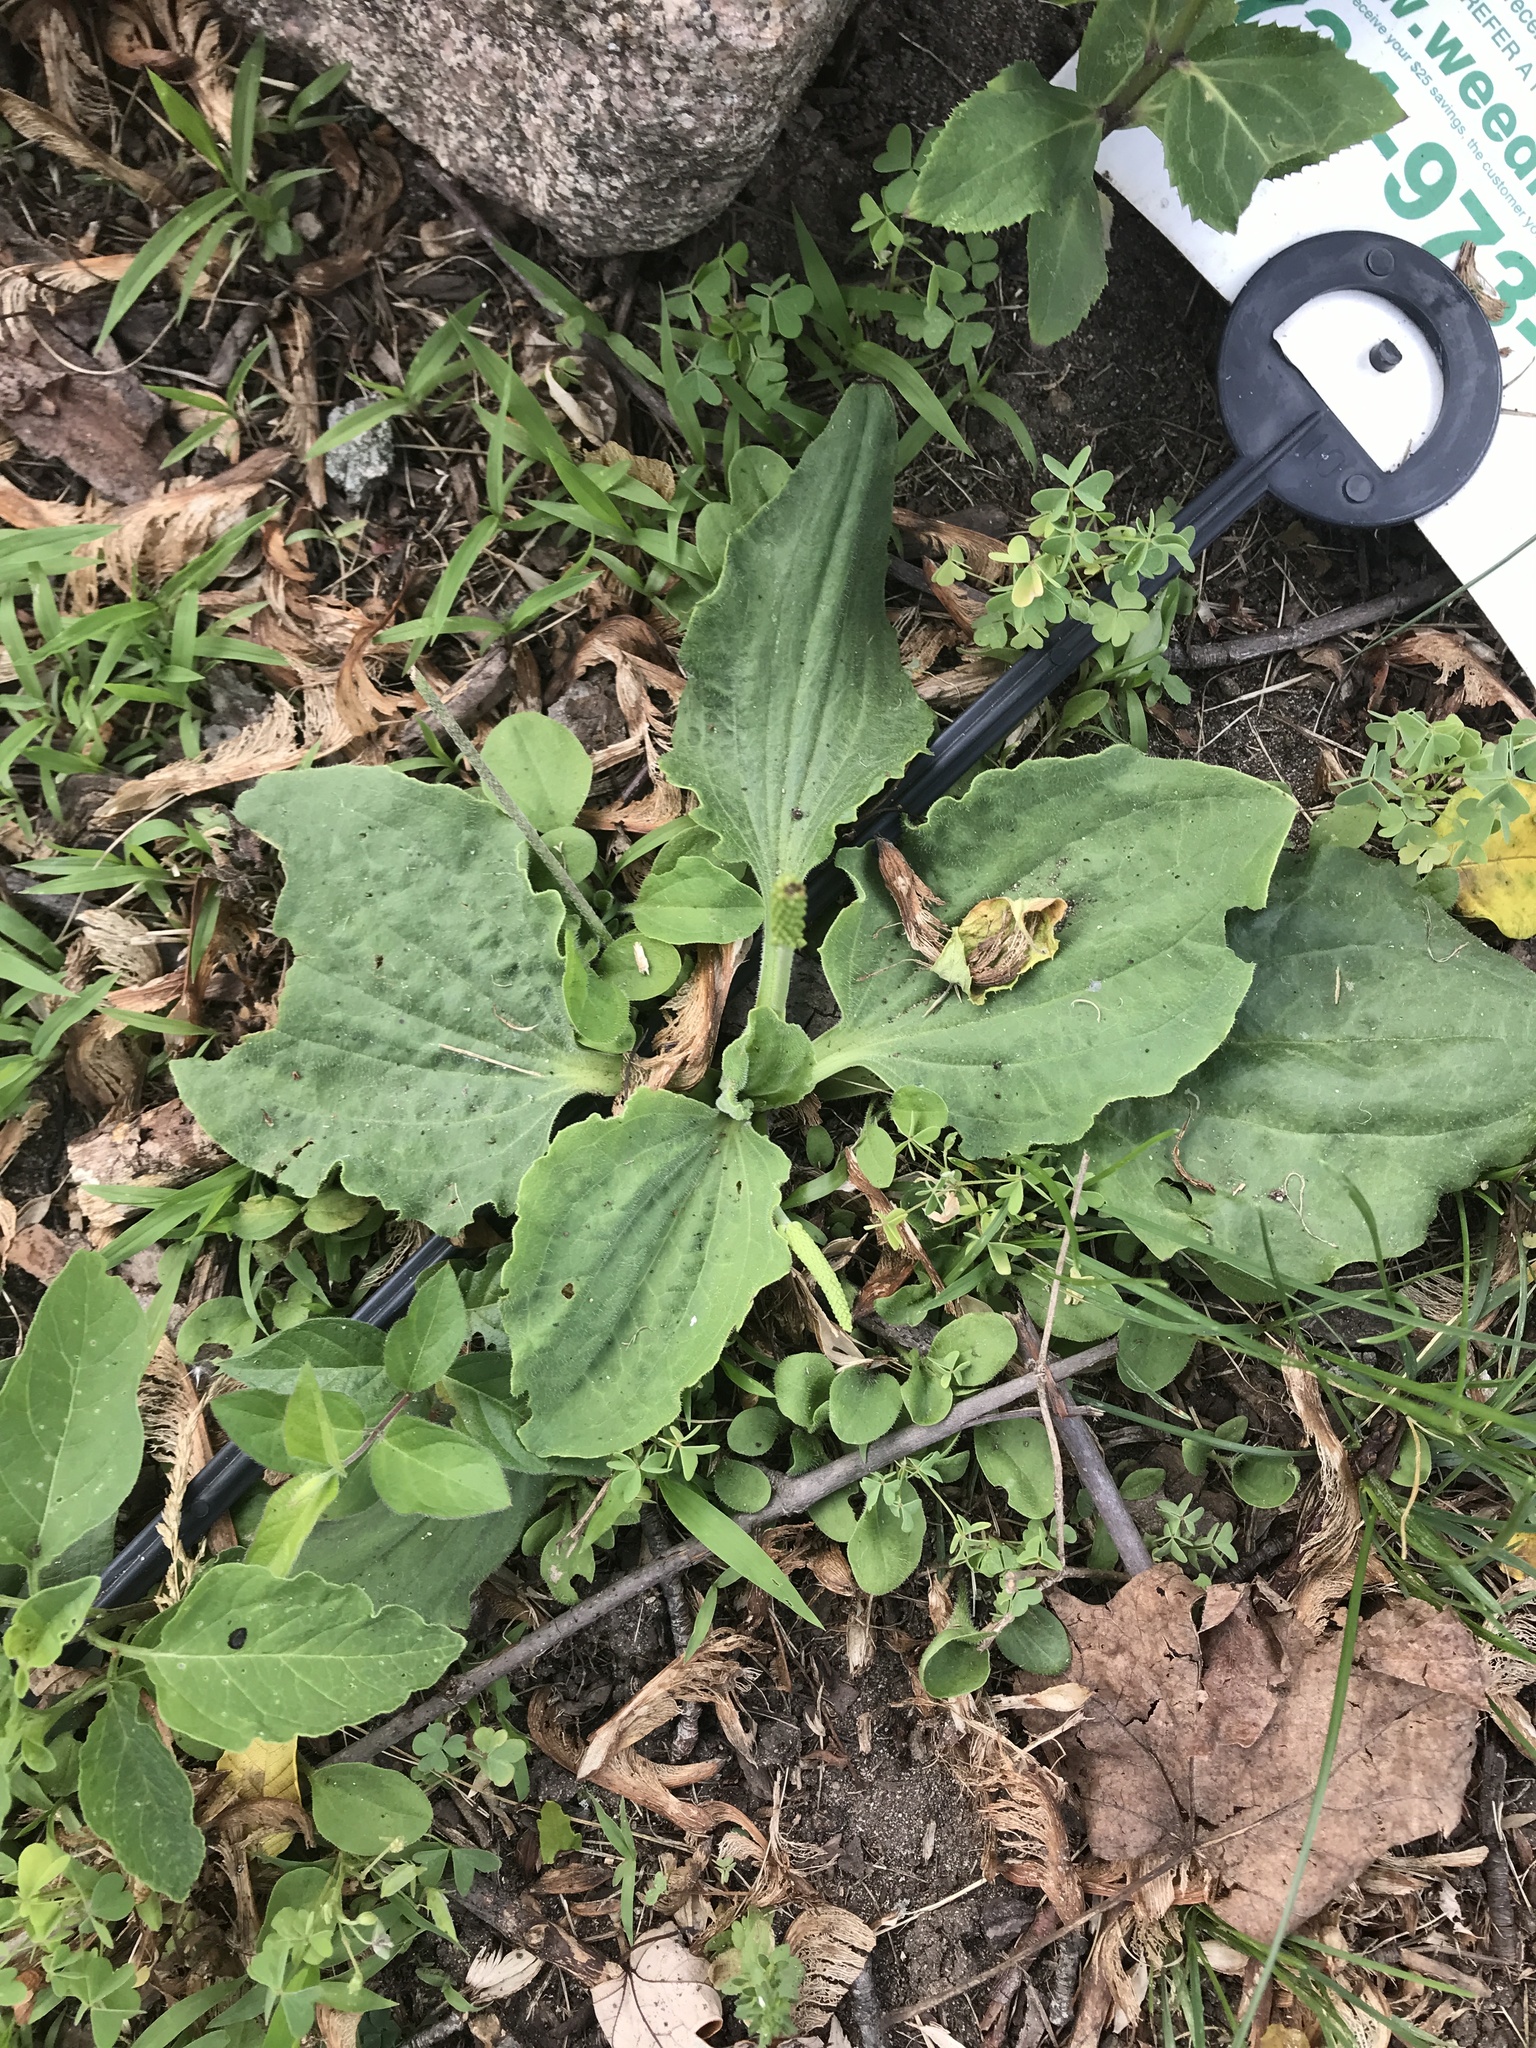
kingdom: Plantae
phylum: Tracheophyta
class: Magnoliopsida
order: Lamiales
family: Plantaginaceae
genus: Plantago
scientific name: Plantago major
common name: Common plantain
